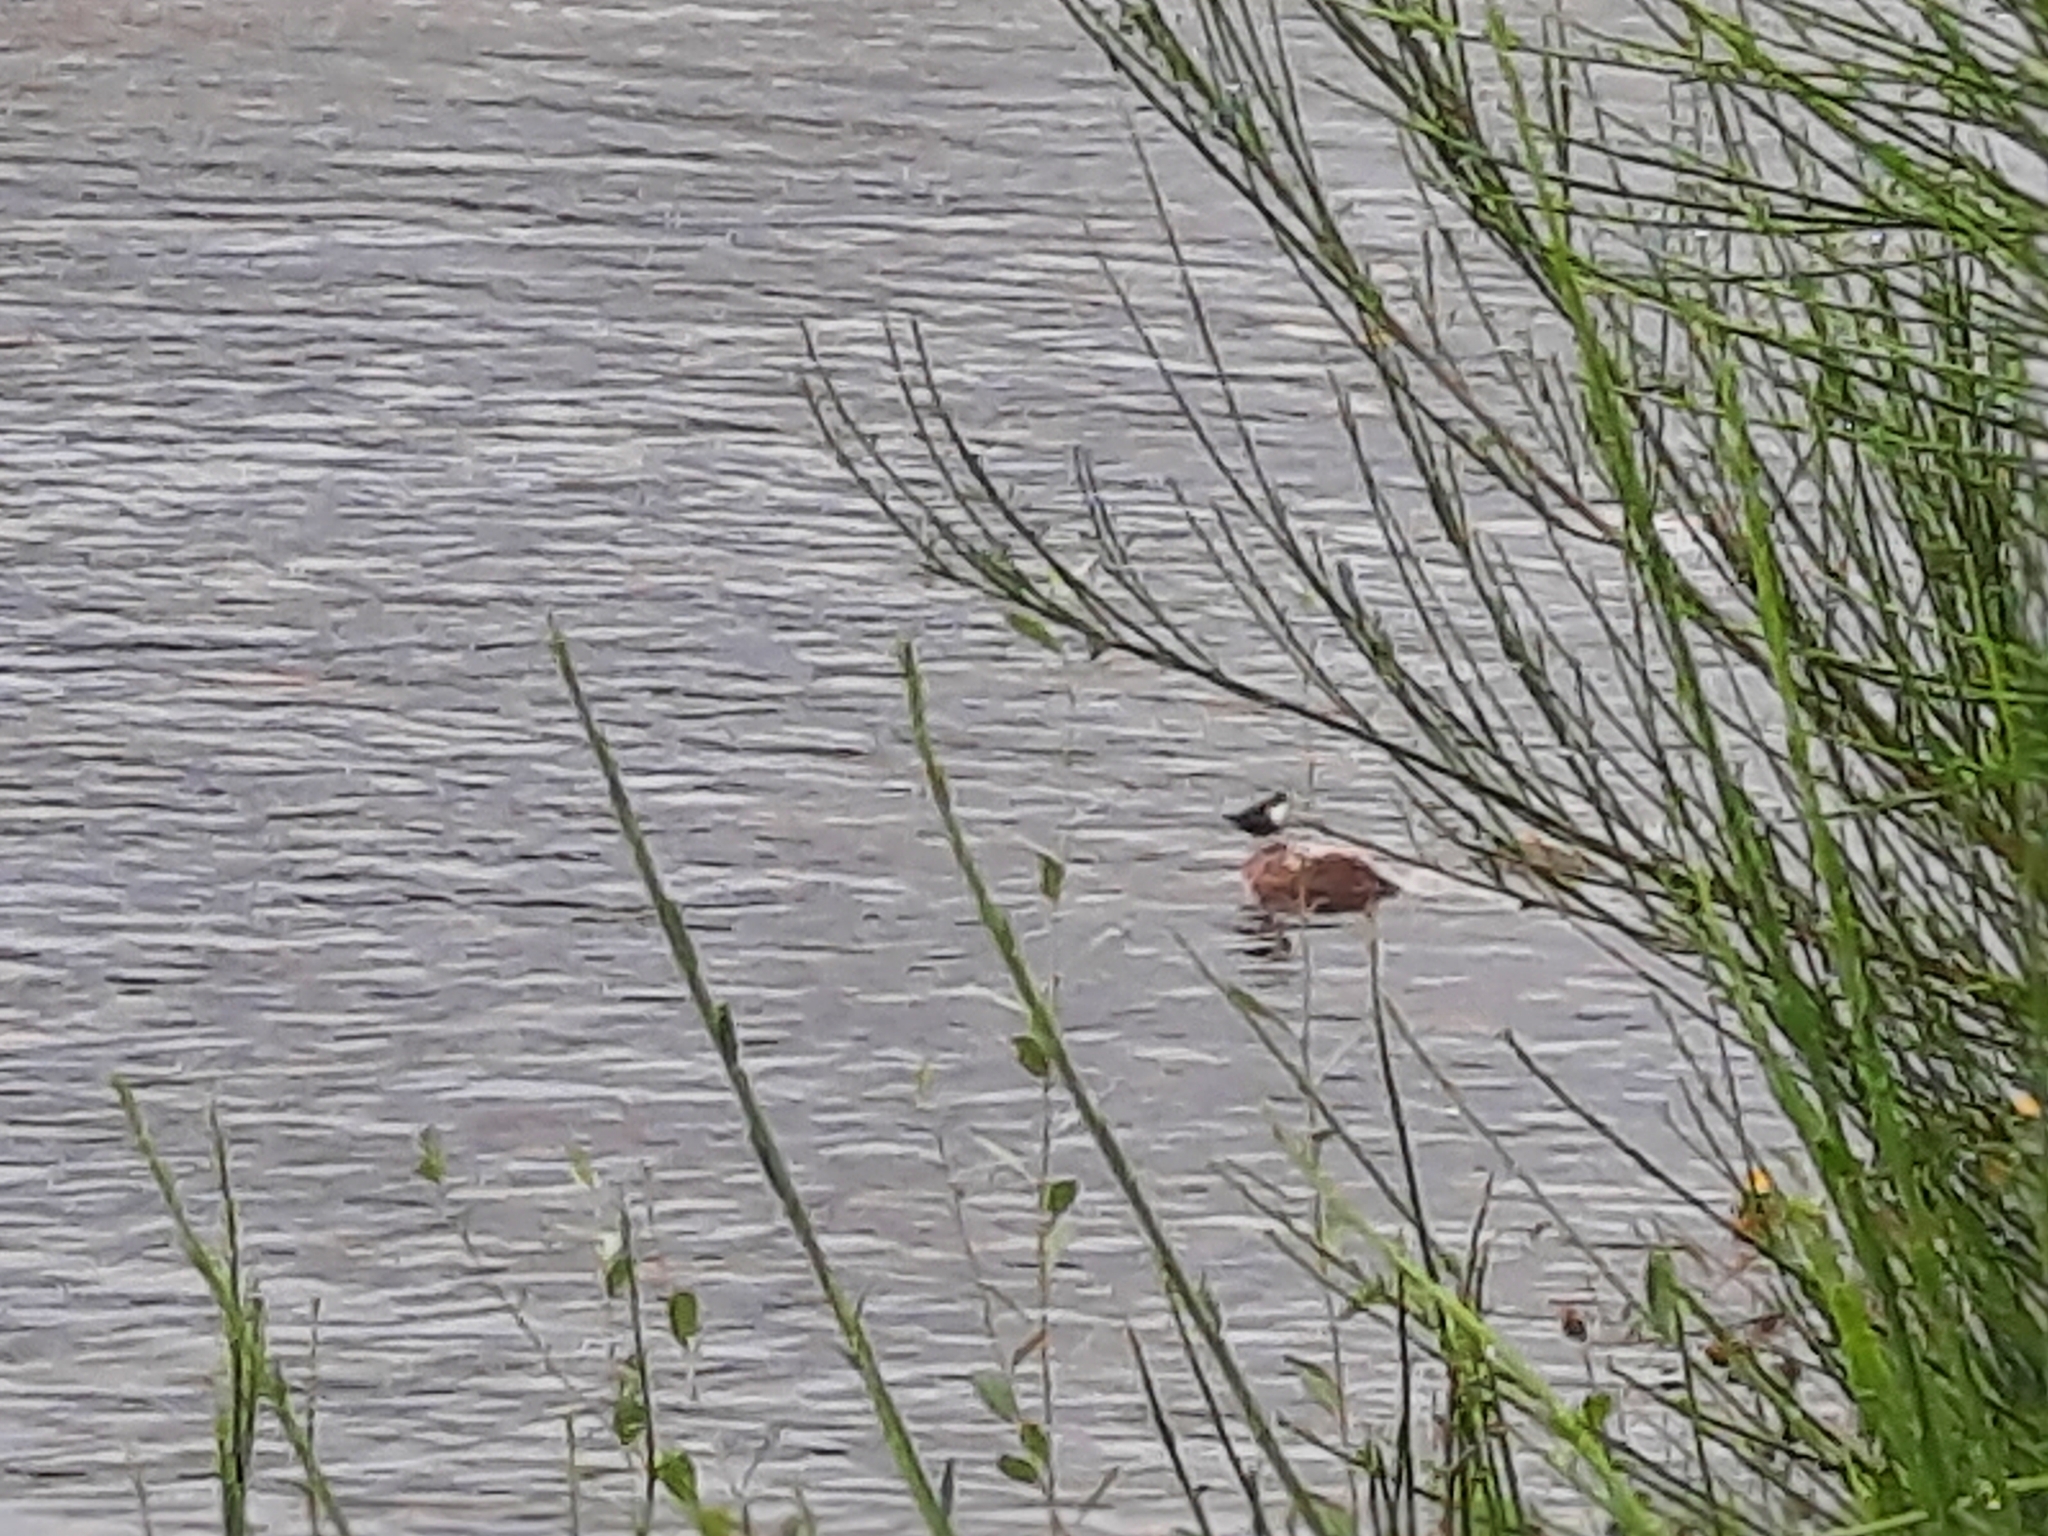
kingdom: Animalia
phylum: Chordata
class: Aves
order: Passeriformes
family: Cinclidae
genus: Cinclus
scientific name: Cinclus cinclus
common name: White-throated dipper
